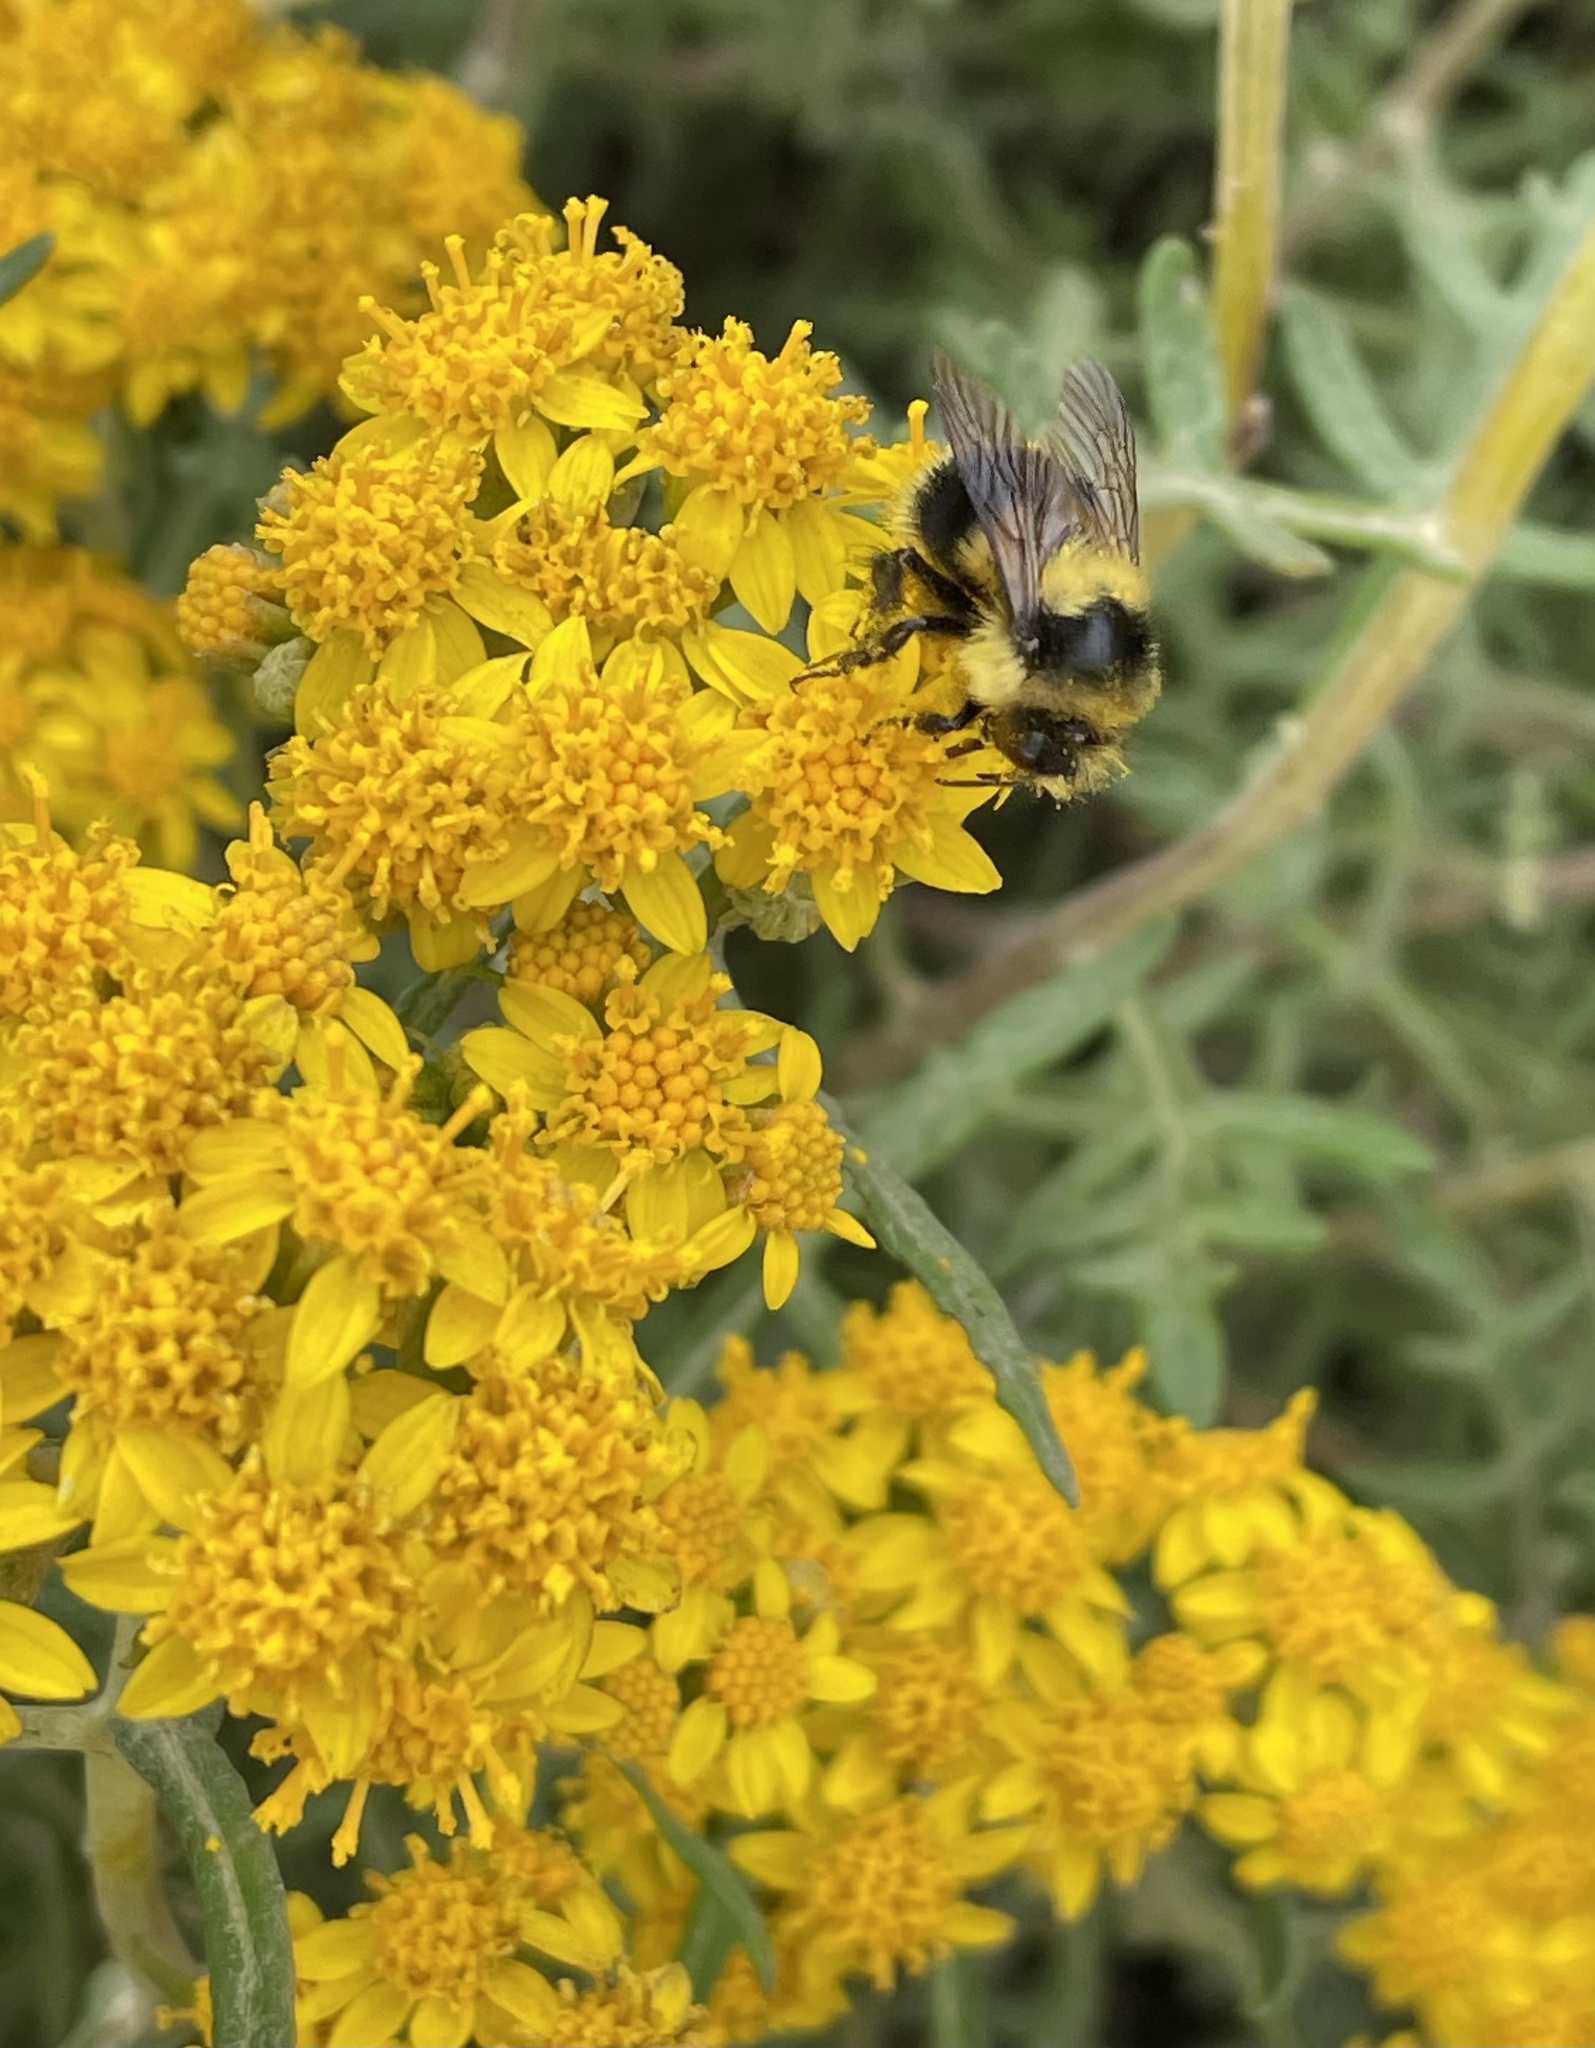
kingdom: Animalia
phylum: Arthropoda
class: Insecta
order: Hymenoptera
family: Apidae
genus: Bombus
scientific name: Bombus melanopygus
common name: Black tail bumble bee
